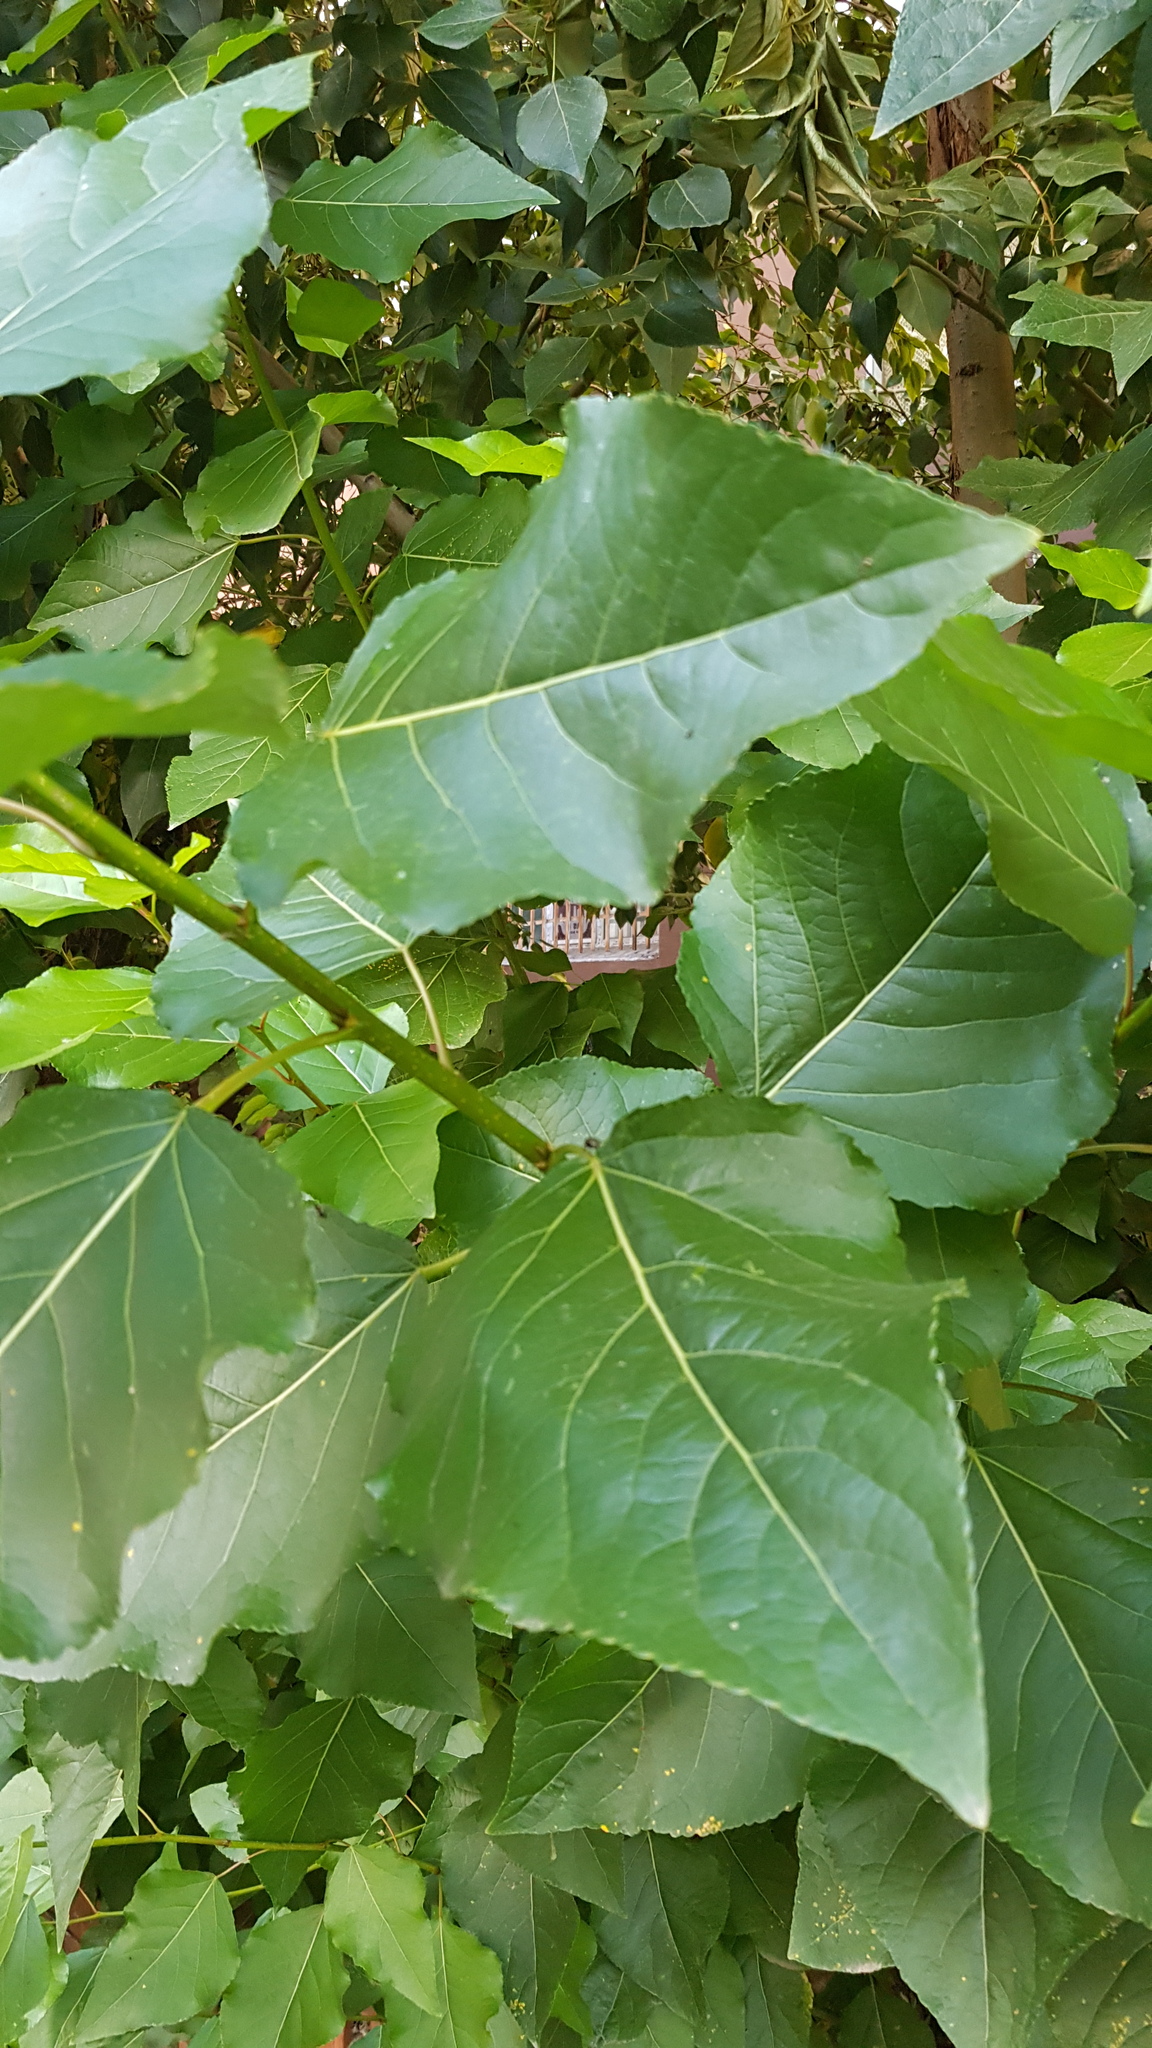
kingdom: Plantae
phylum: Tracheophyta
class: Magnoliopsida
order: Malpighiales
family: Salicaceae
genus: Populus
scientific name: Populus laurifolia
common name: Laurel-leaf poplar
